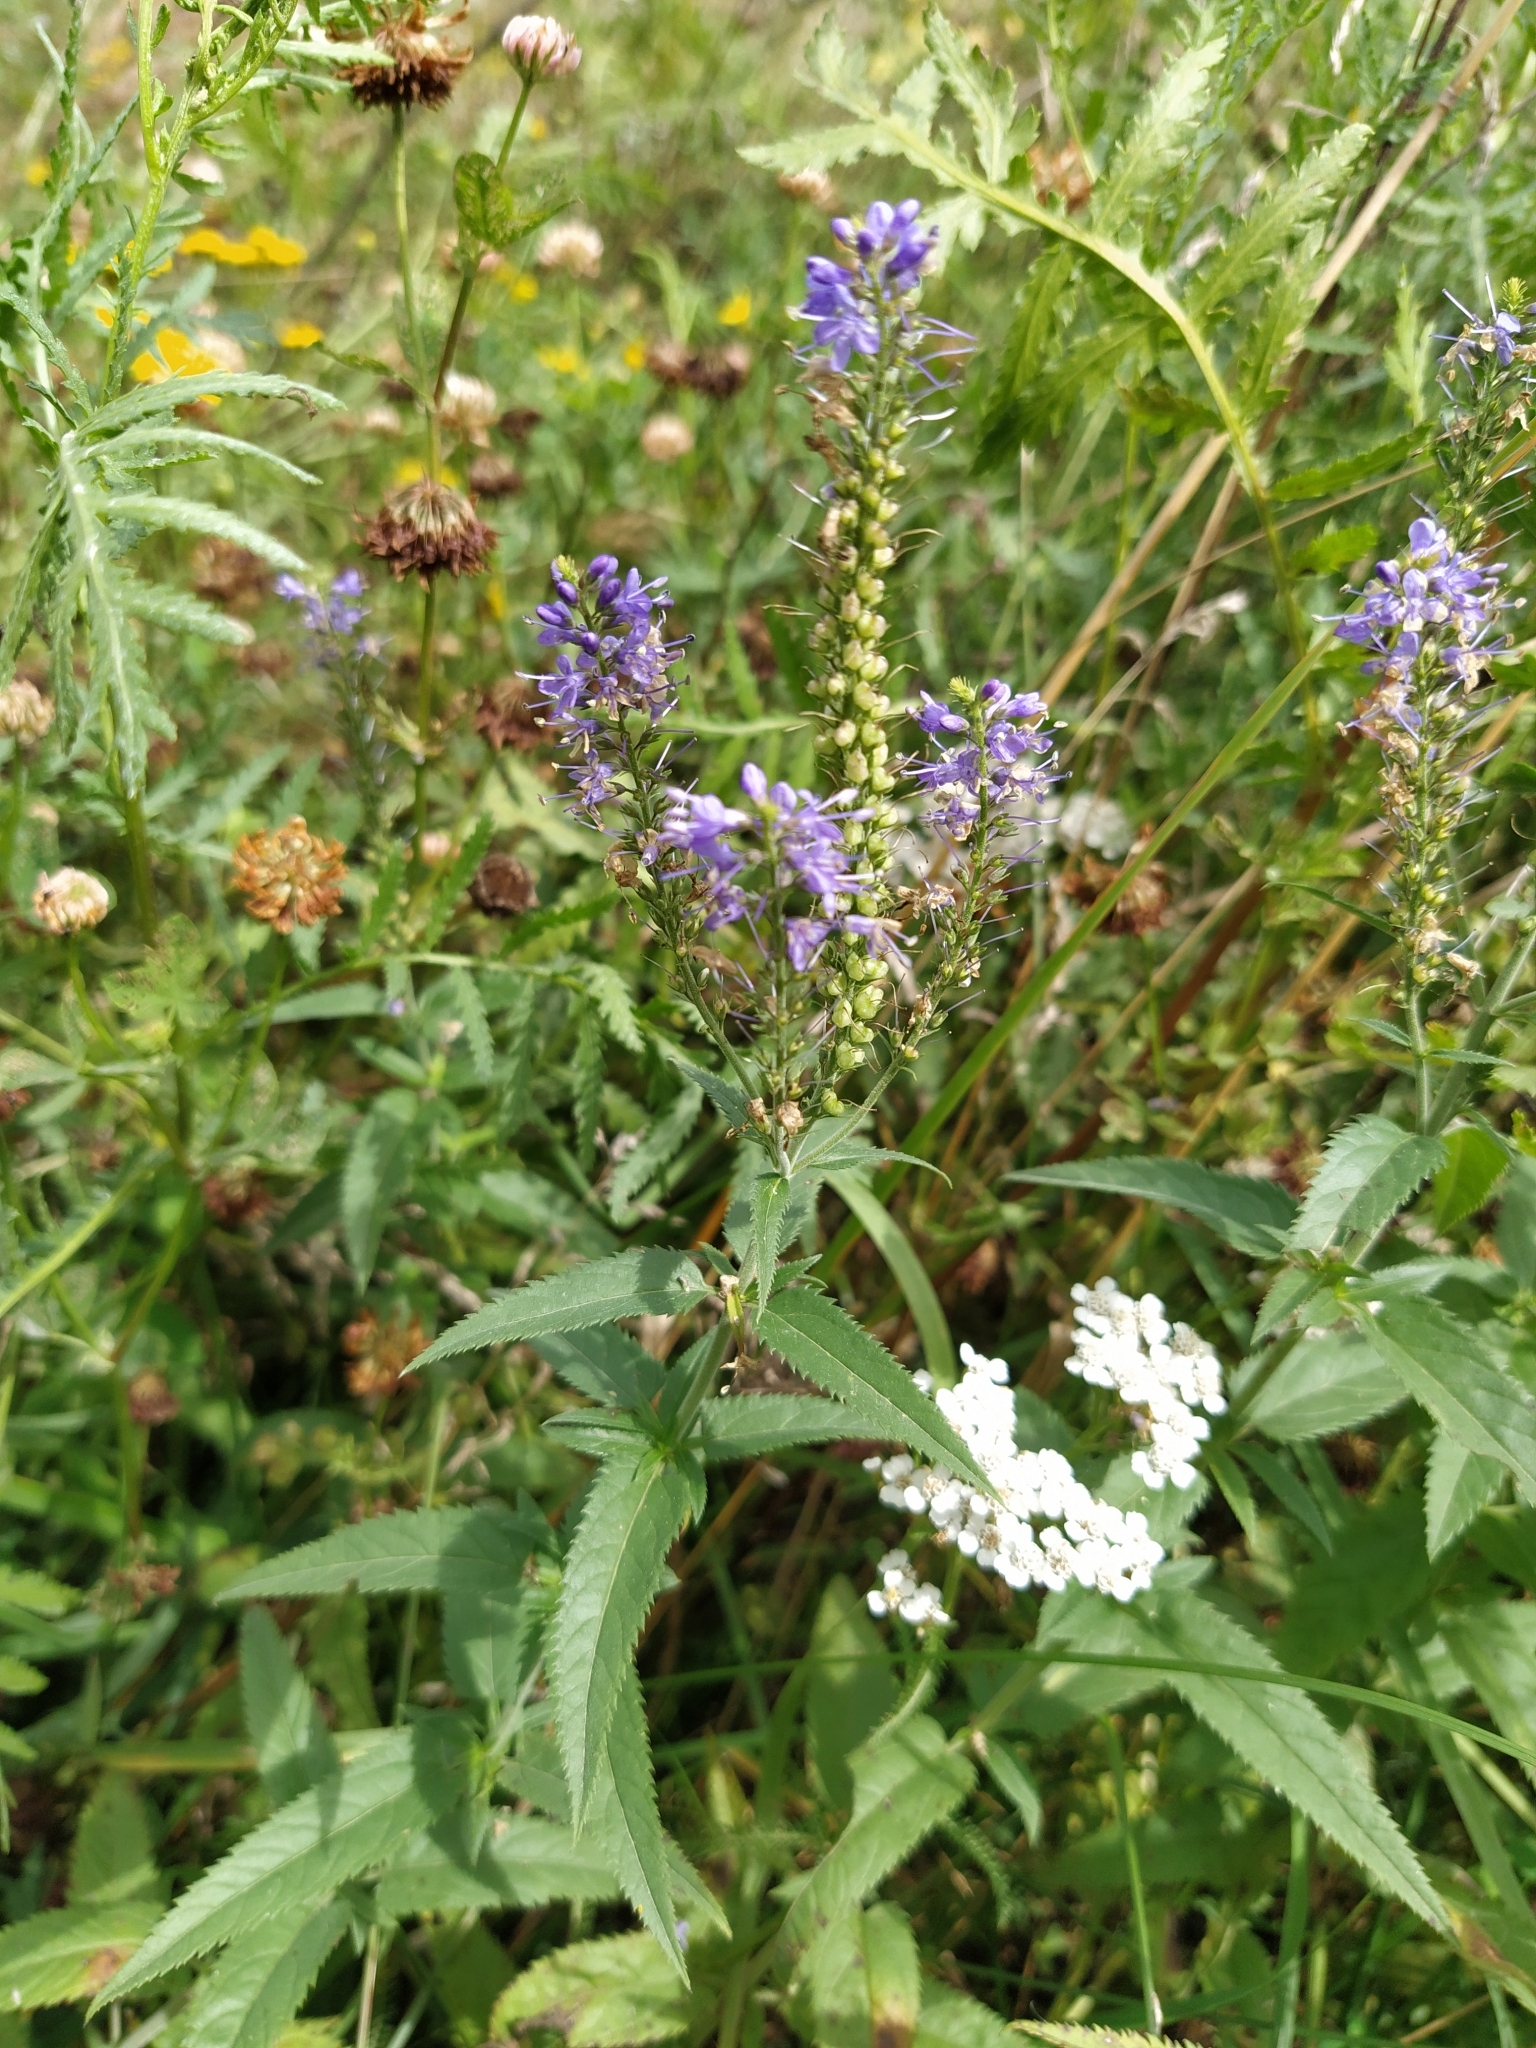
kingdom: Plantae
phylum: Tracheophyta
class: Magnoliopsida
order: Lamiales
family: Plantaginaceae
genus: Veronica
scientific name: Veronica longifolia
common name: Garden speedwell
